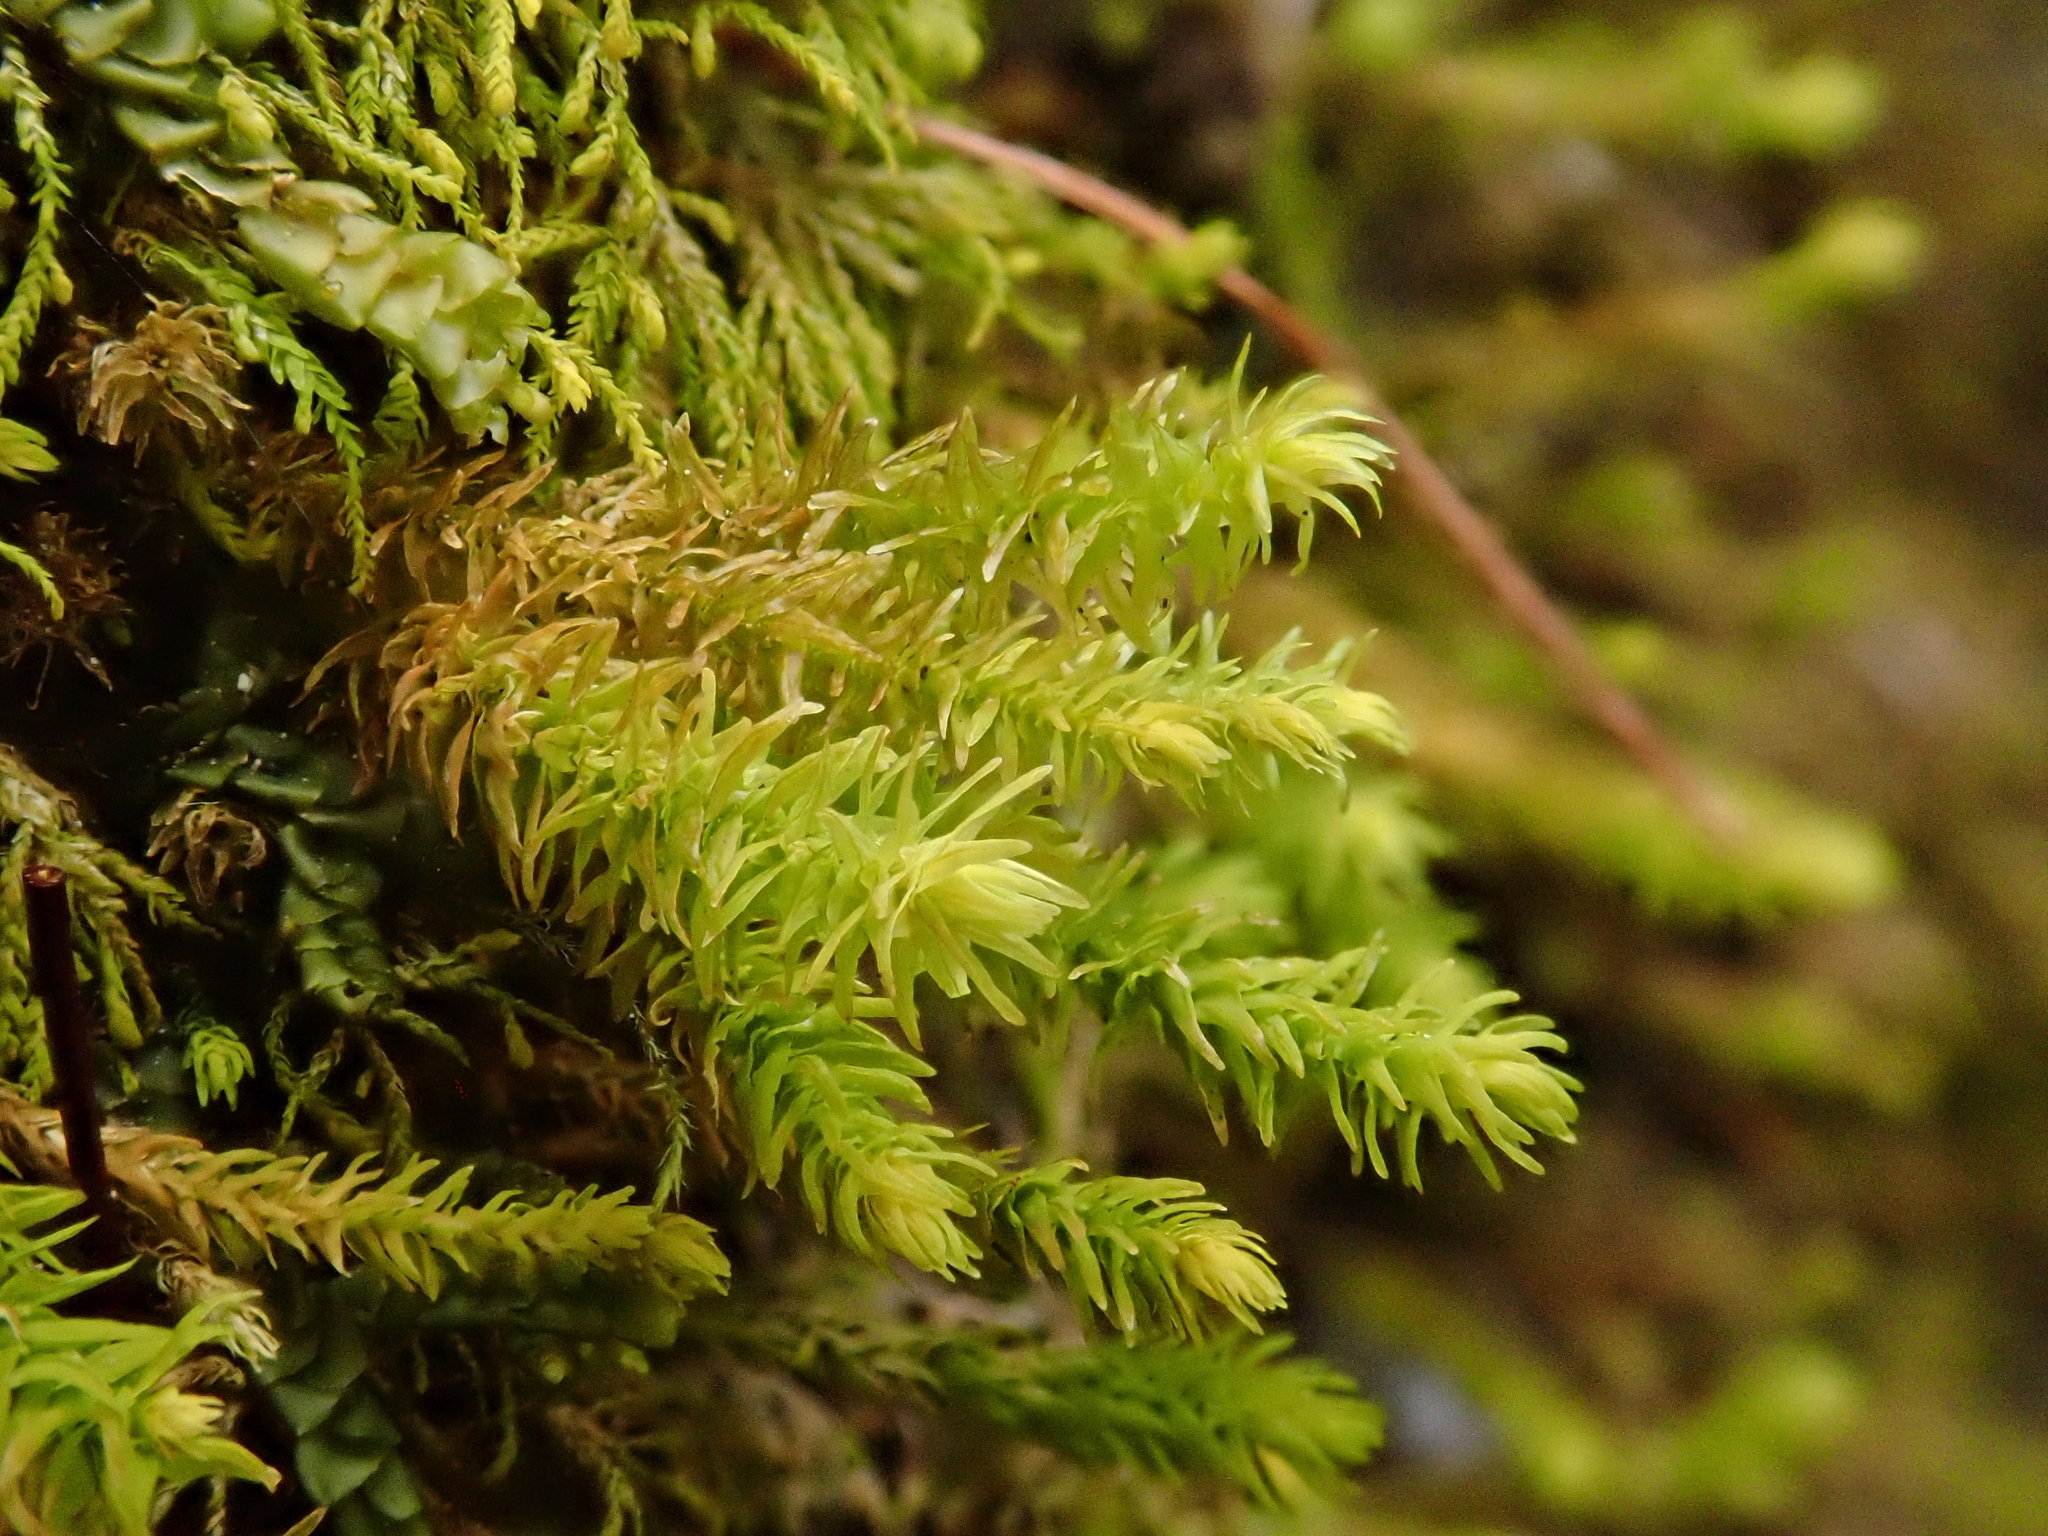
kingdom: Plantae
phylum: Bryophyta
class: Bryopsida
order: Hypnales
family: Anomodontaceae
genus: Anomodon
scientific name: Anomodon viticulosus
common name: Tall anomodon
